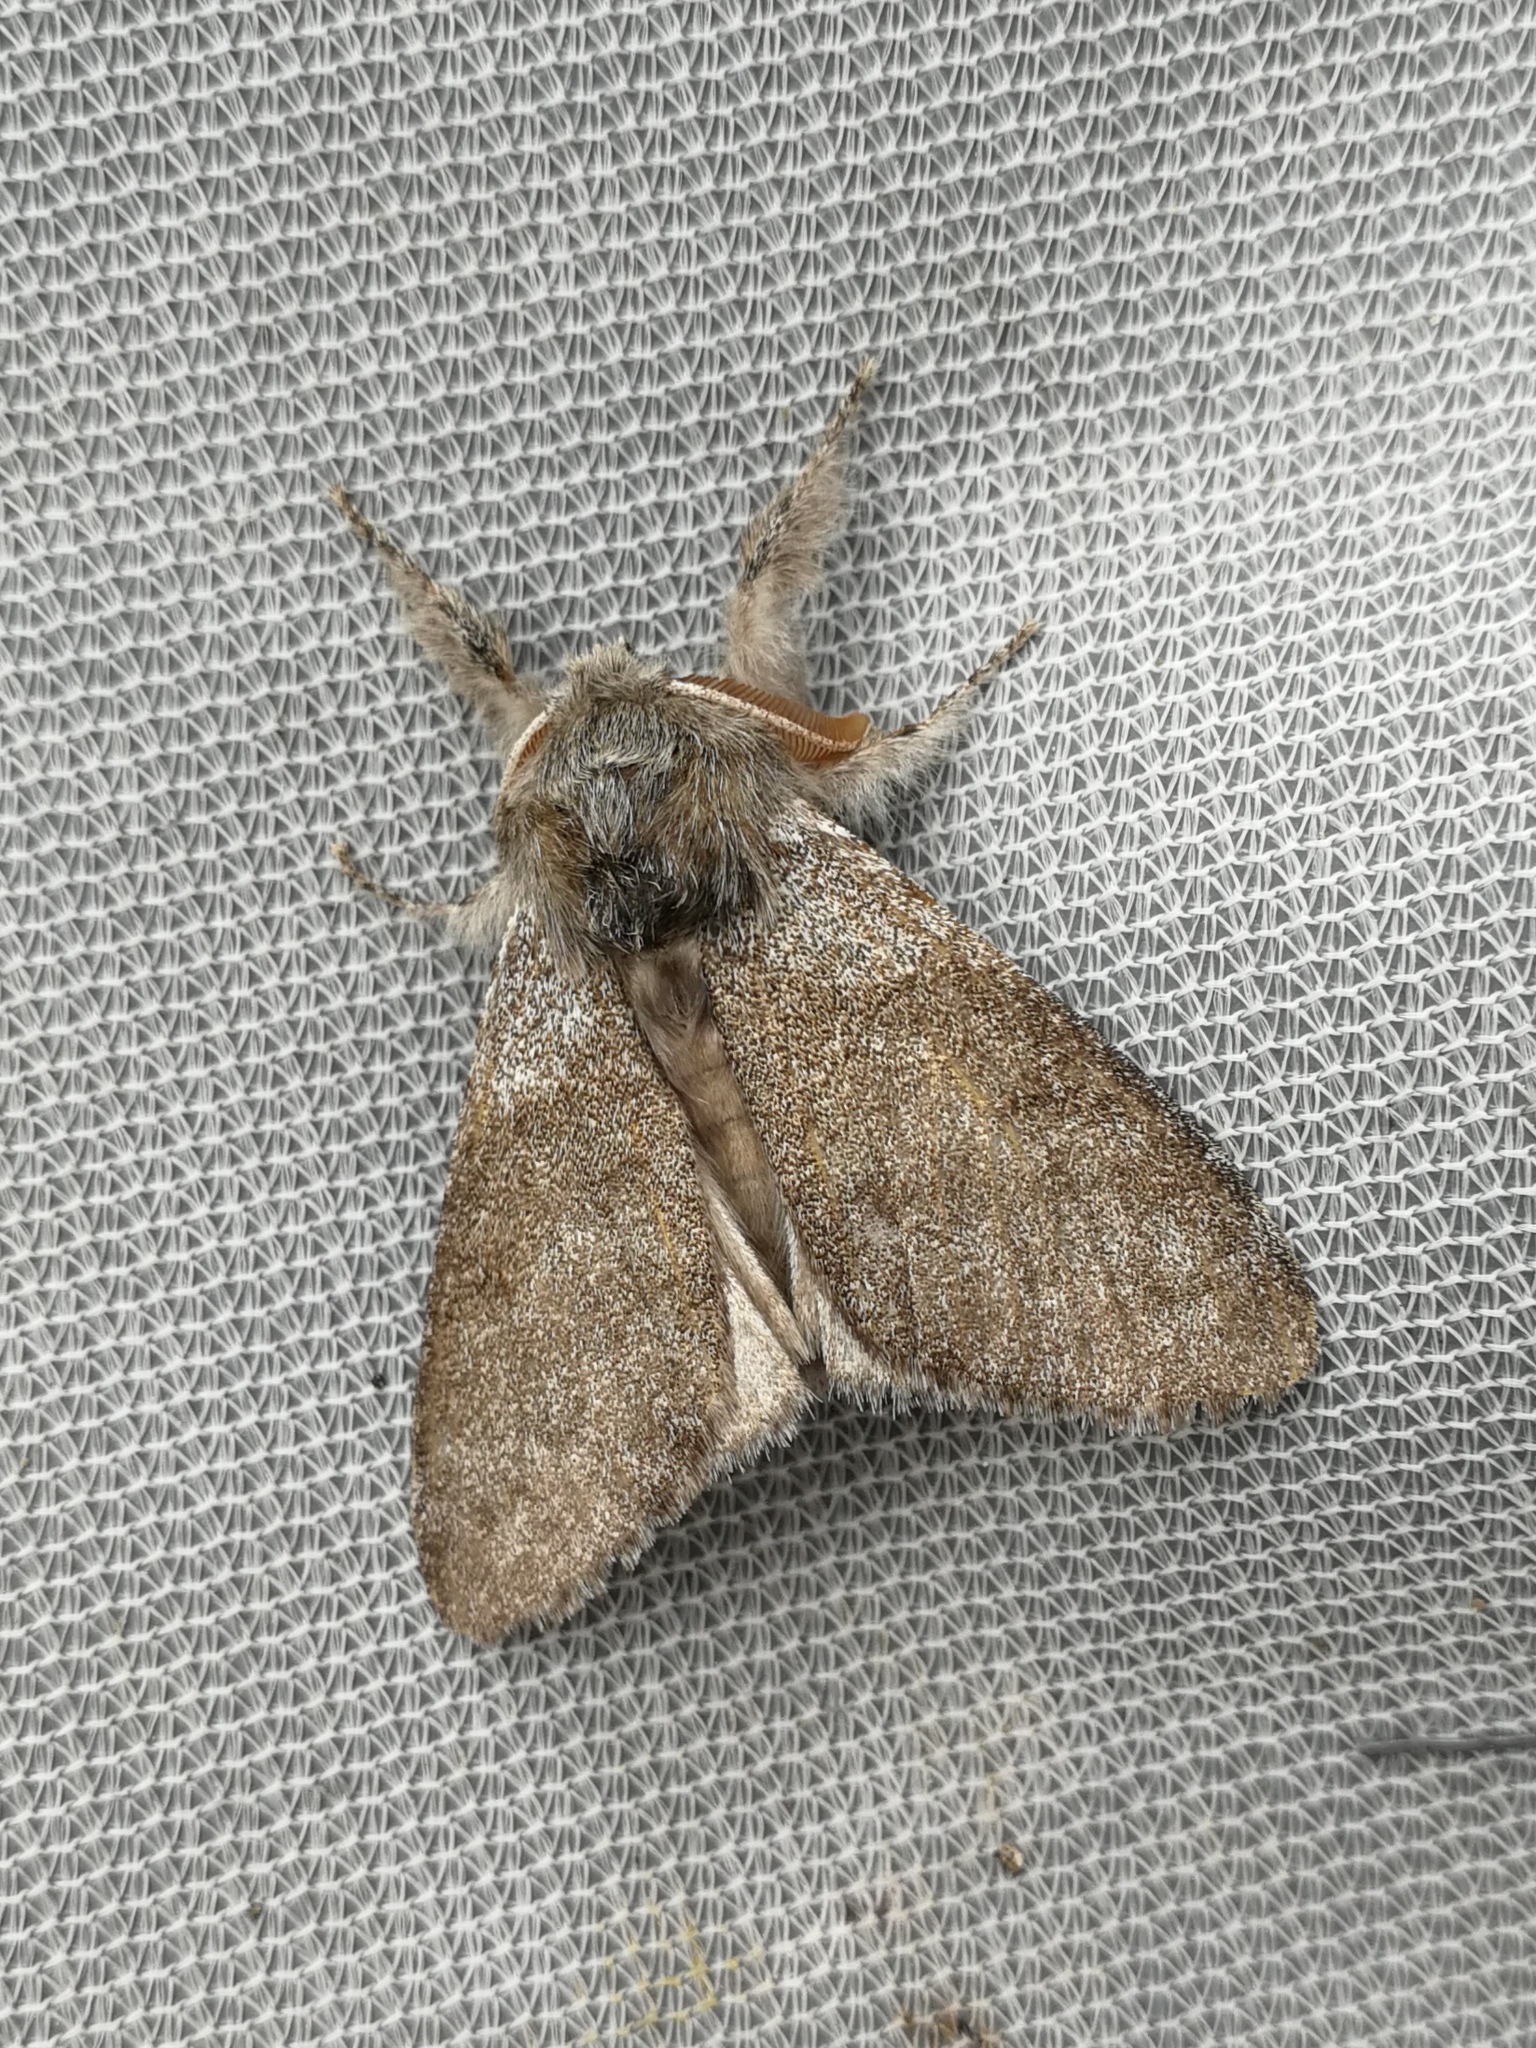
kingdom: Animalia
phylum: Arthropoda
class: Insecta
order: Lepidoptera
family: Erebidae
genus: Calliteara
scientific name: Calliteara pudibunda
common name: Pale tussock
